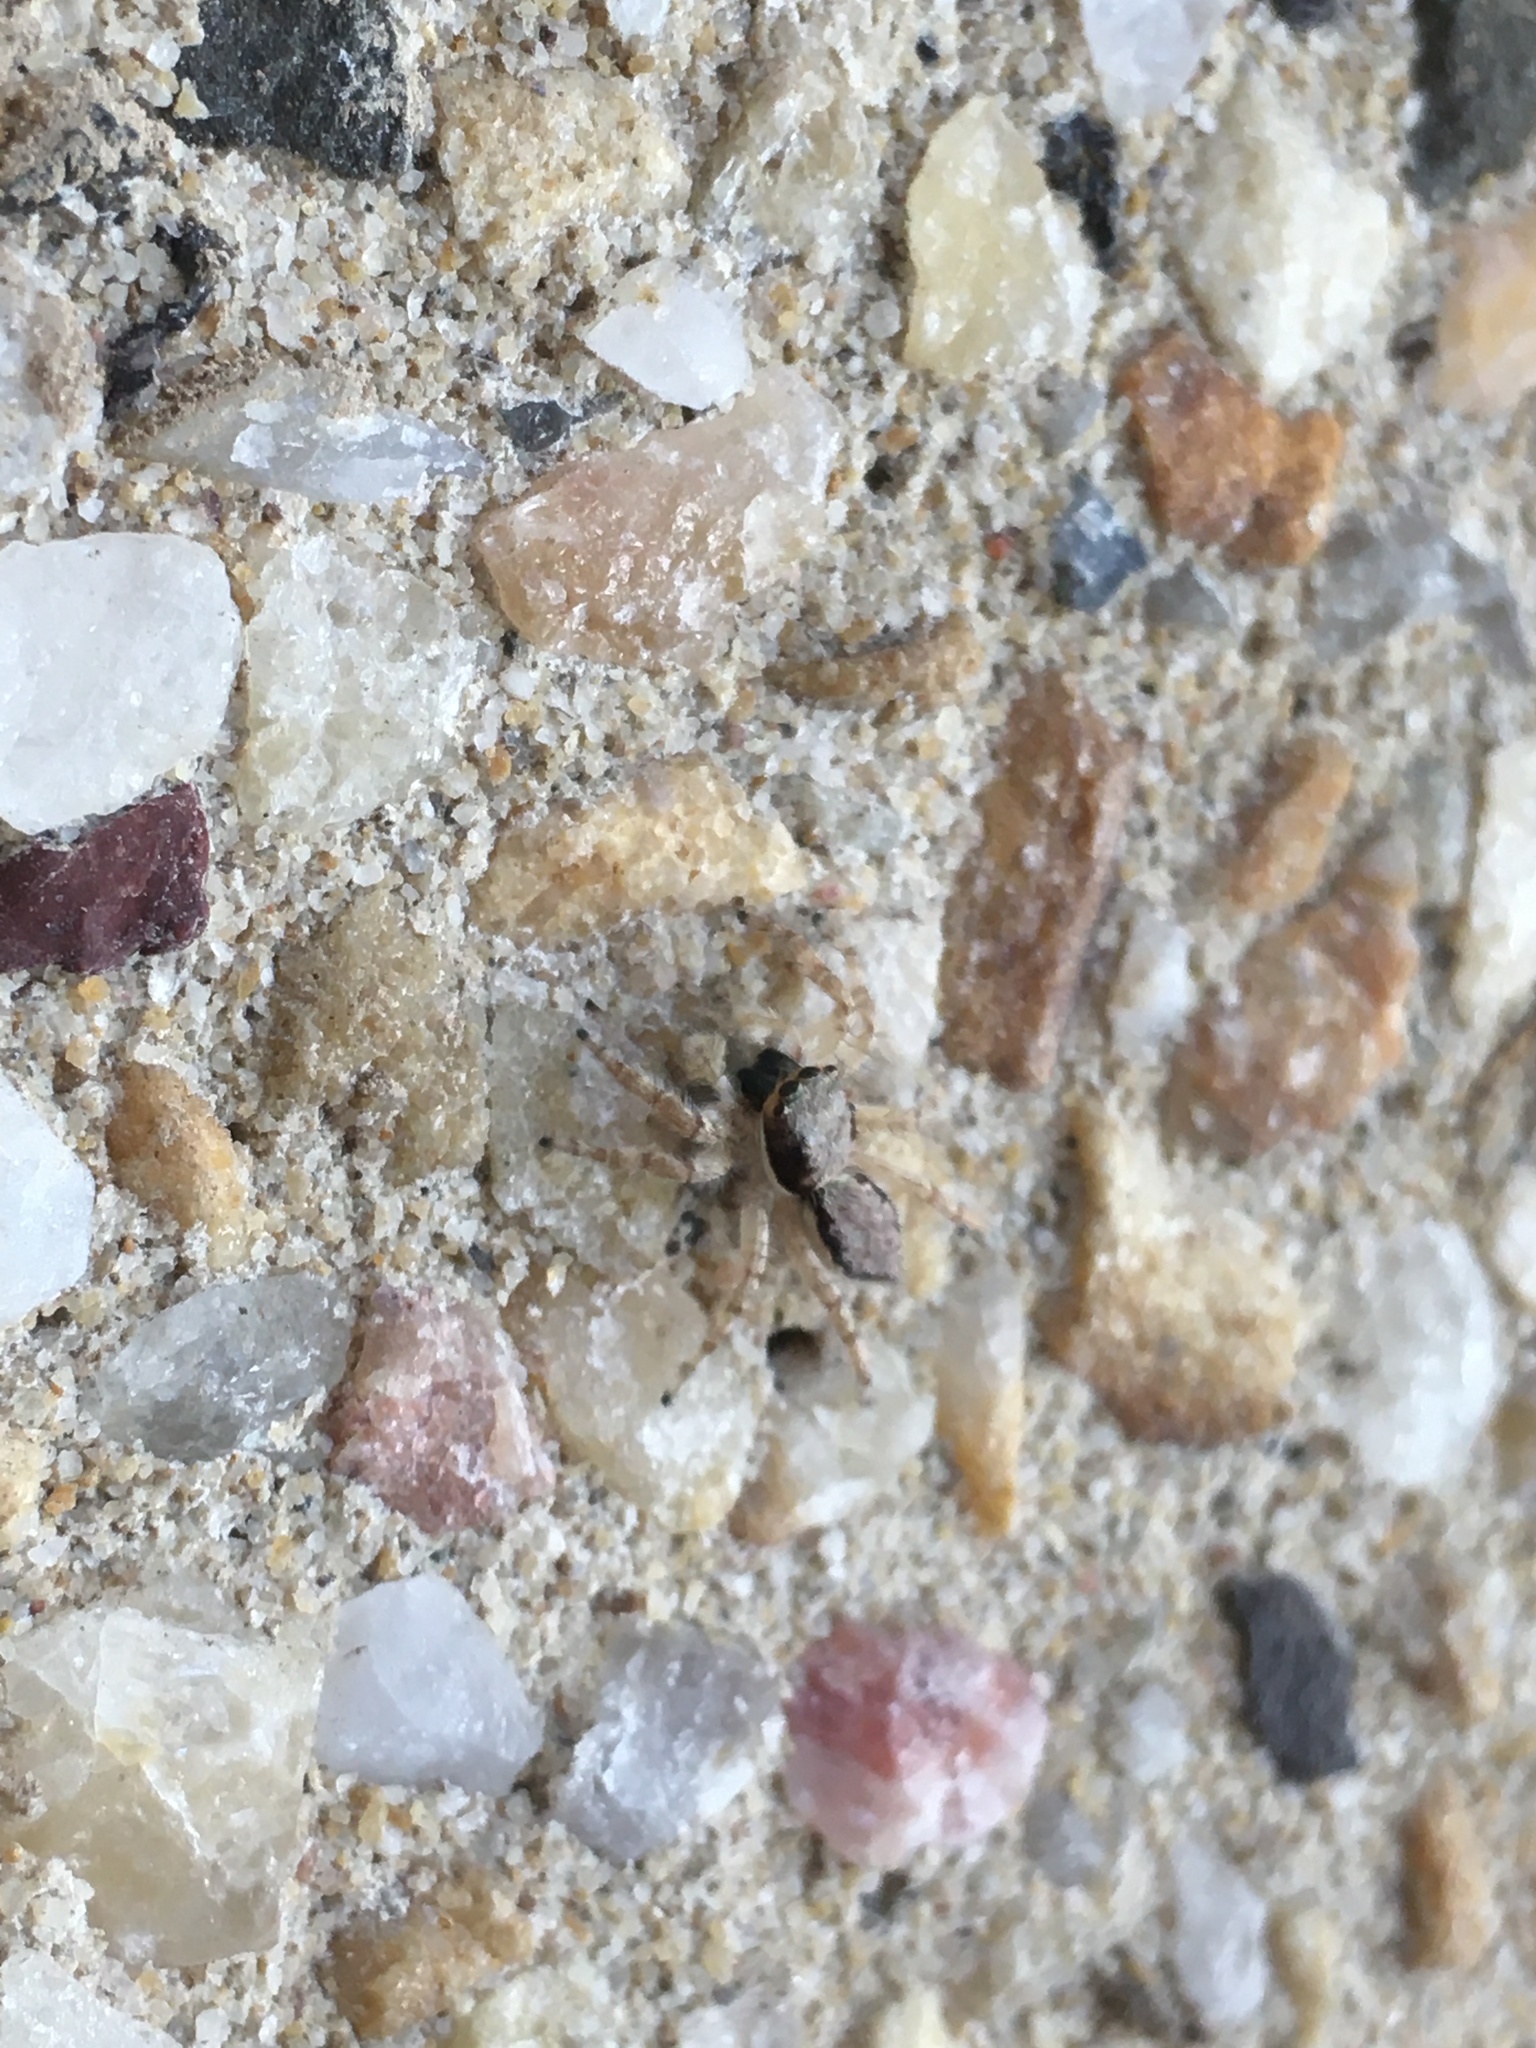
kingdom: Animalia
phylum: Arthropoda
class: Arachnida
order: Araneae
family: Salticidae
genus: Menemerus
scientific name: Menemerus bivittatus
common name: Gray wall jumper
